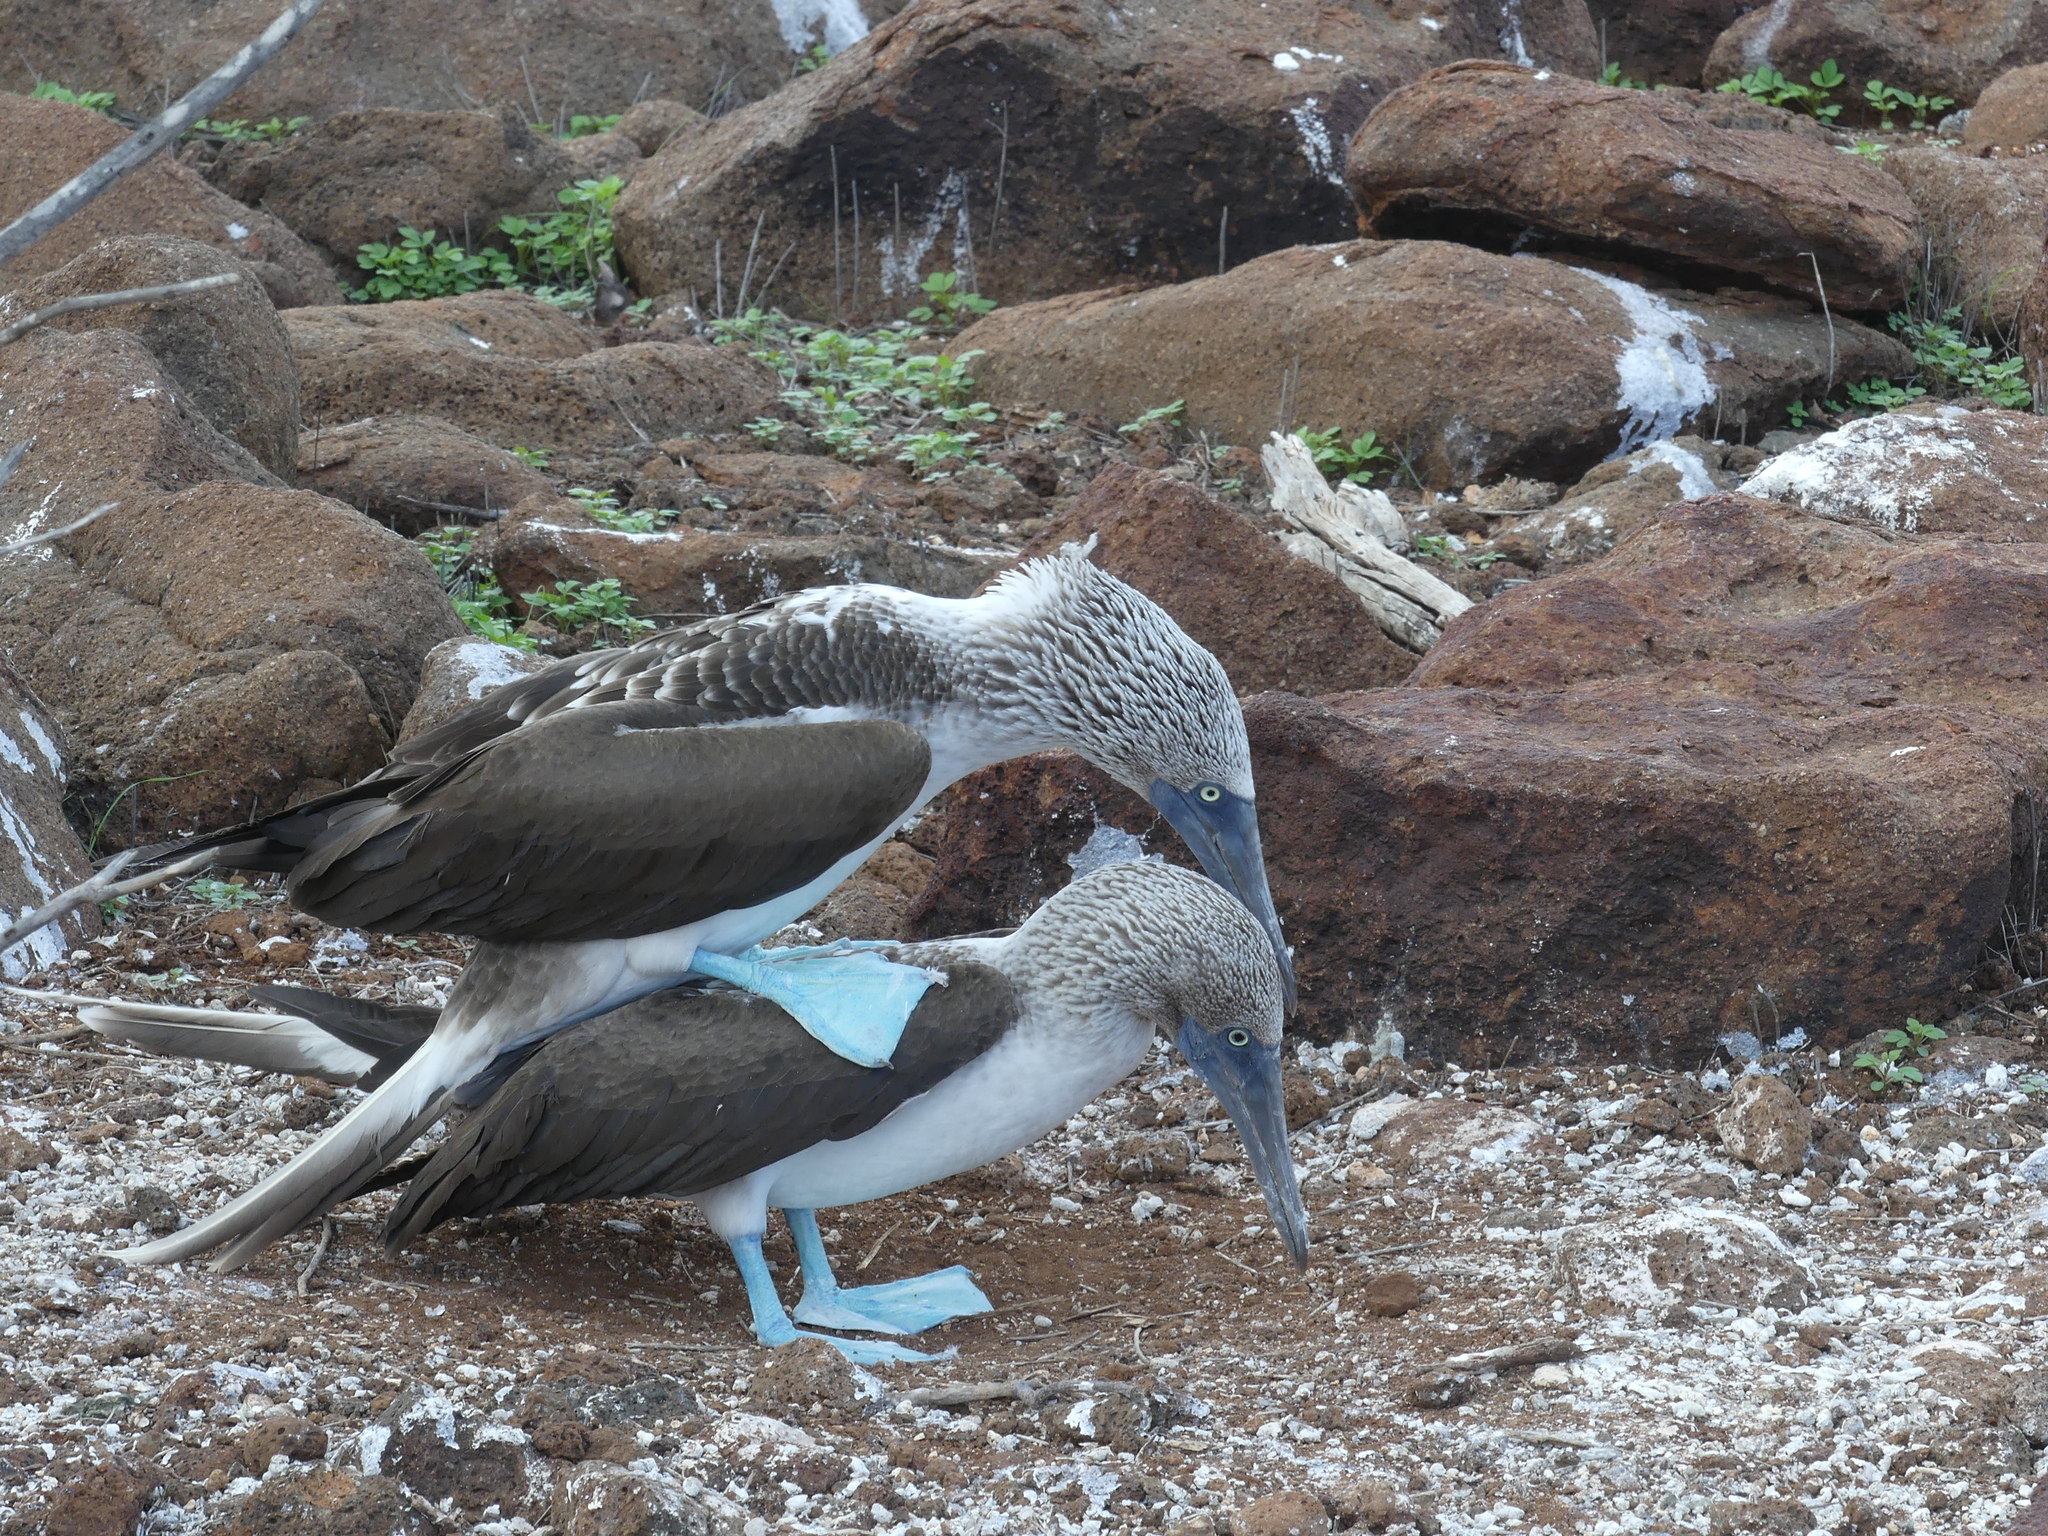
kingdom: Animalia
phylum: Chordata
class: Aves
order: Suliformes
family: Sulidae
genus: Sula
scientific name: Sula nebouxii
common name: Blue-footed booby
